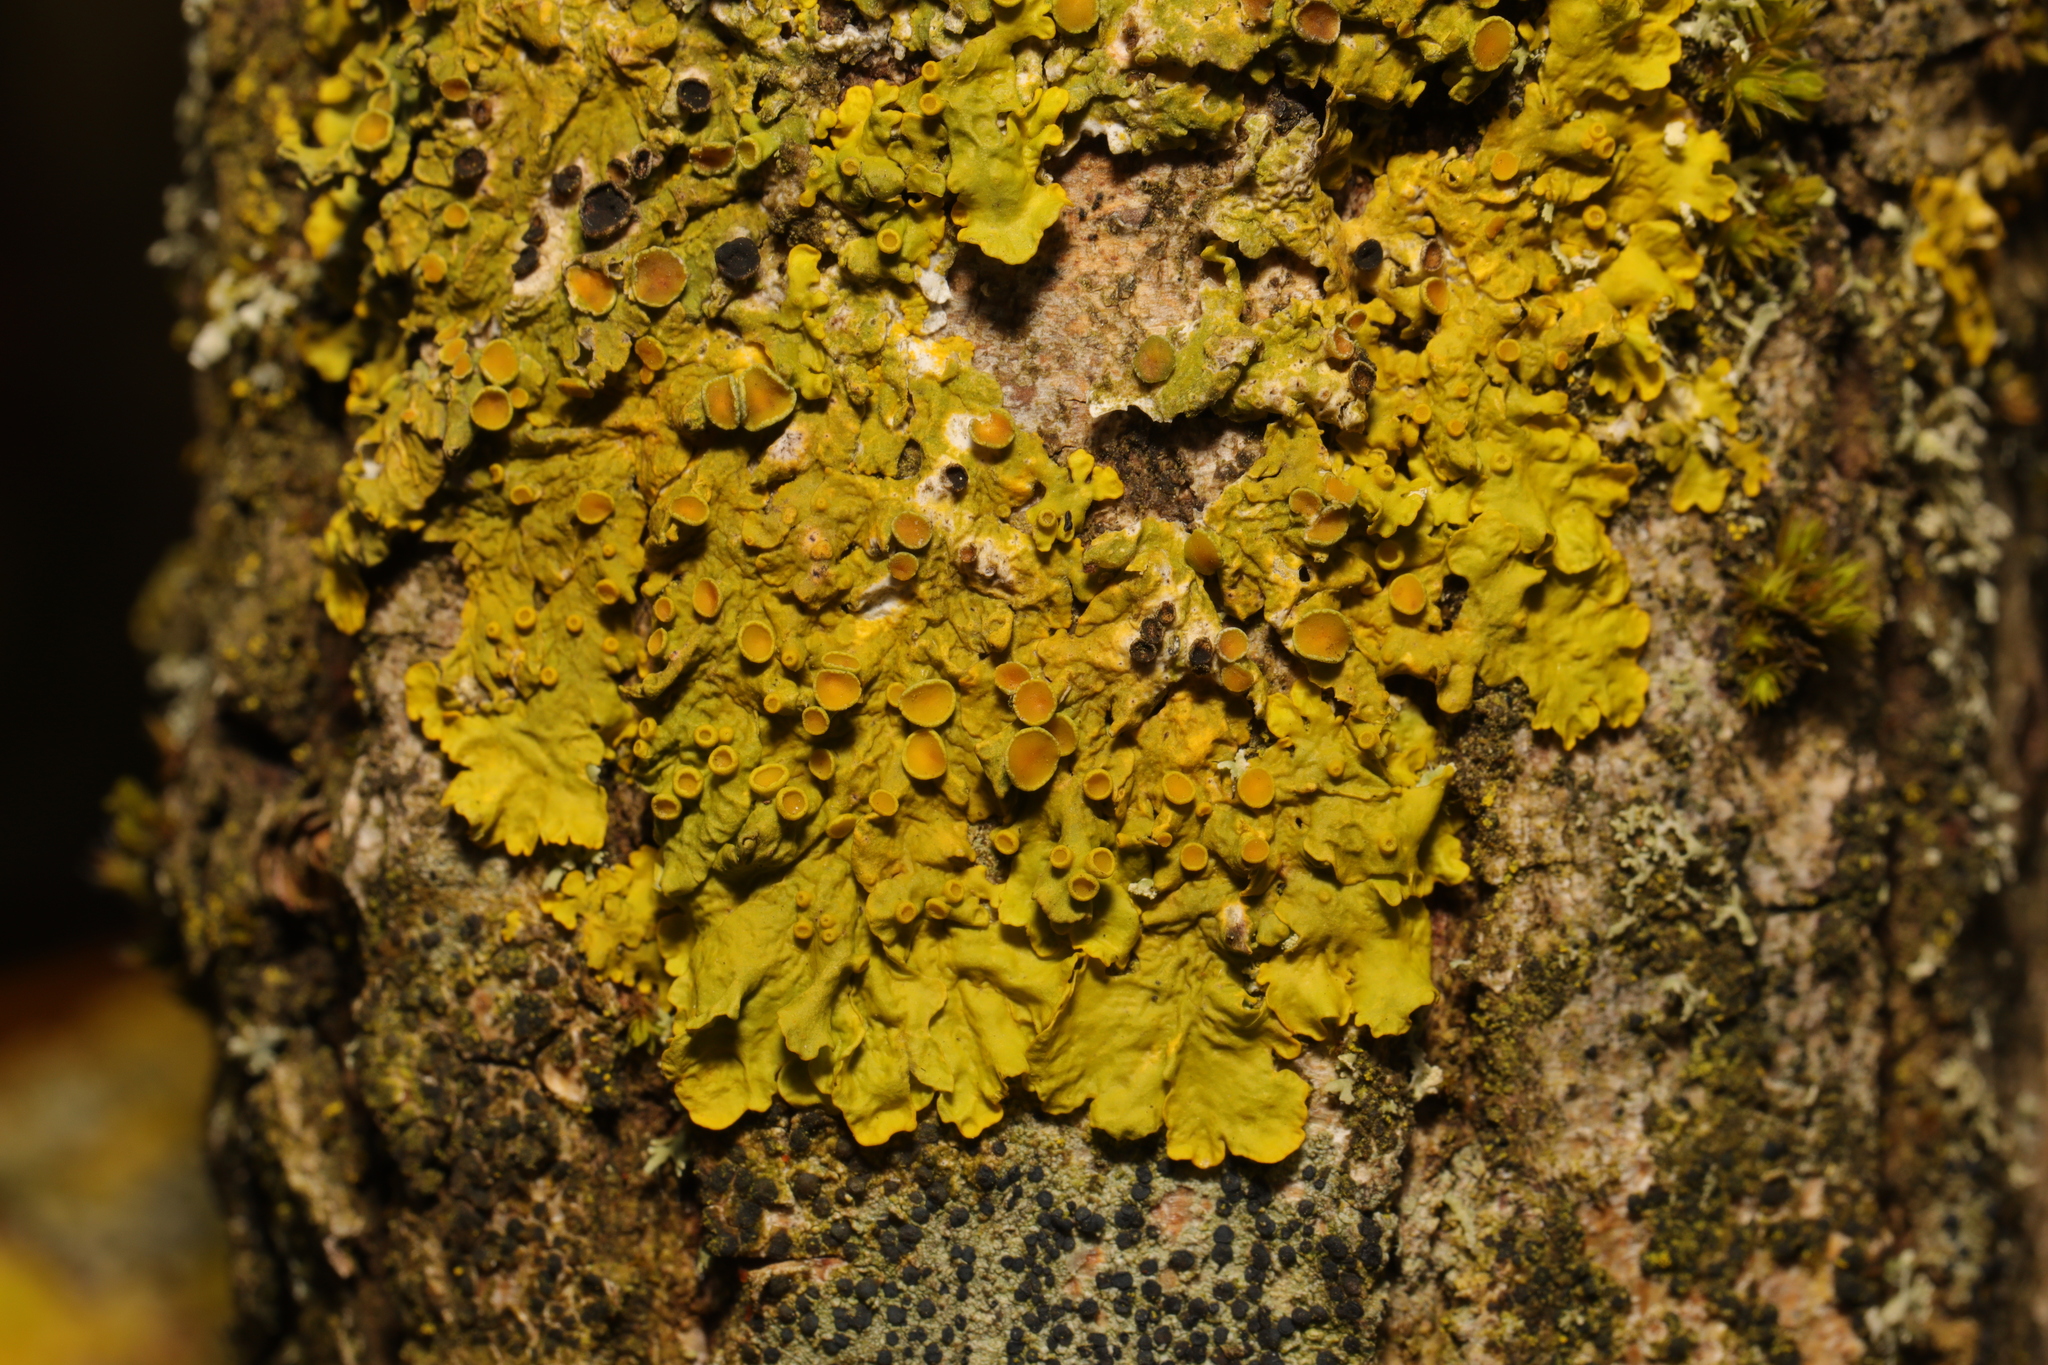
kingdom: Fungi
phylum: Ascomycota
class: Lecanoromycetes
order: Teloschistales
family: Teloschistaceae
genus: Xanthoria
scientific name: Xanthoria parietina
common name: Common orange lichen
